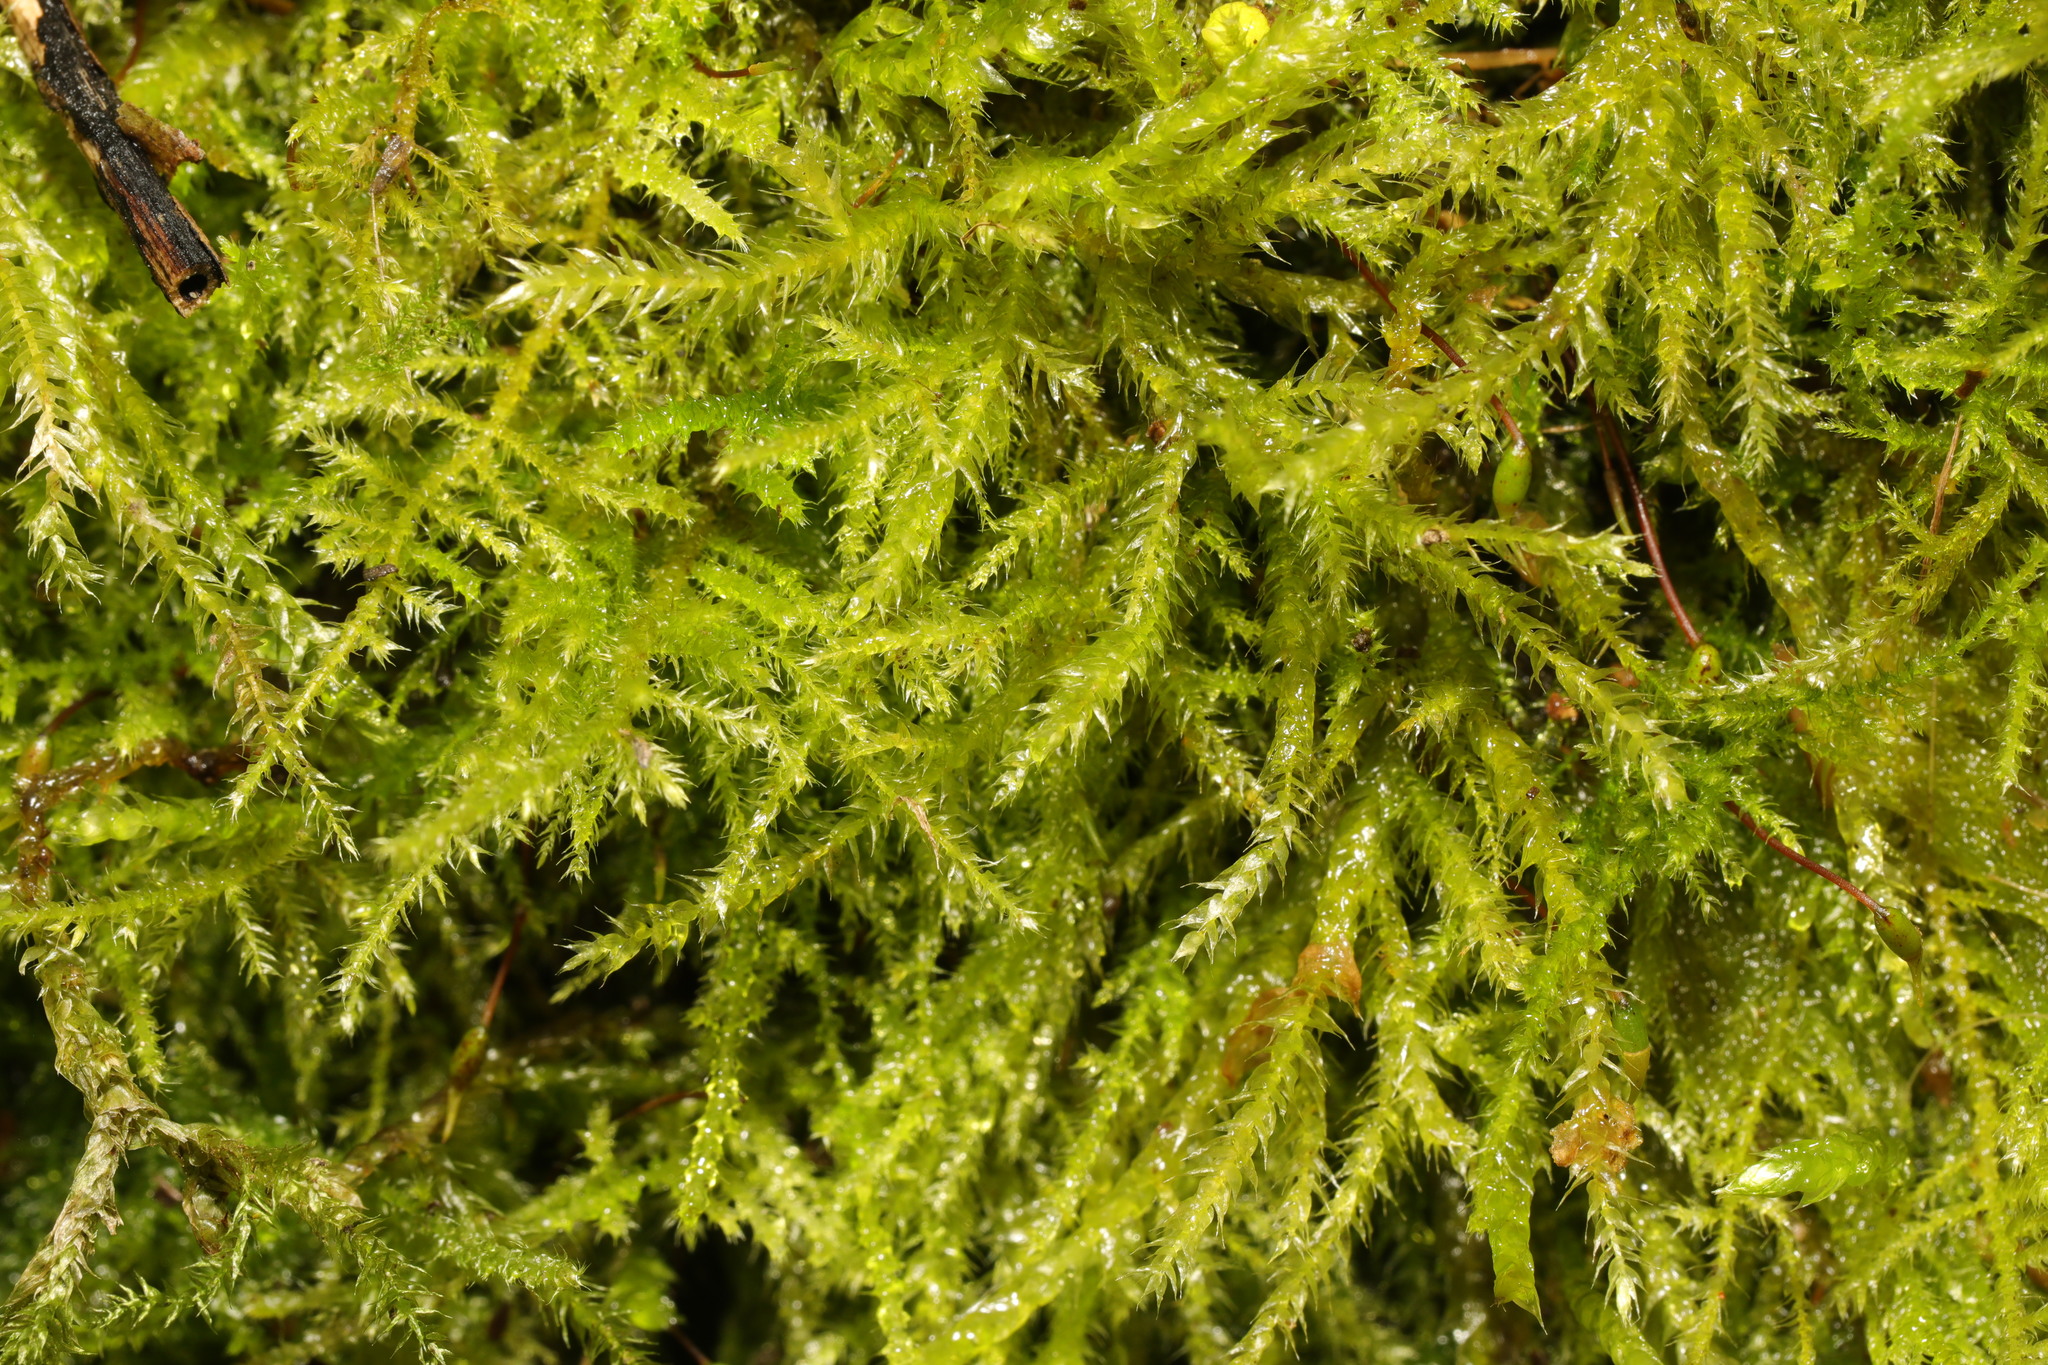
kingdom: Plantae
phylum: Bryophyta
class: Bryopsida
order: Hypnales
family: Brachytheciaceae
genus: Kindbergia
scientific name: Kindbergia praelonga
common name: Slender beaked moss
